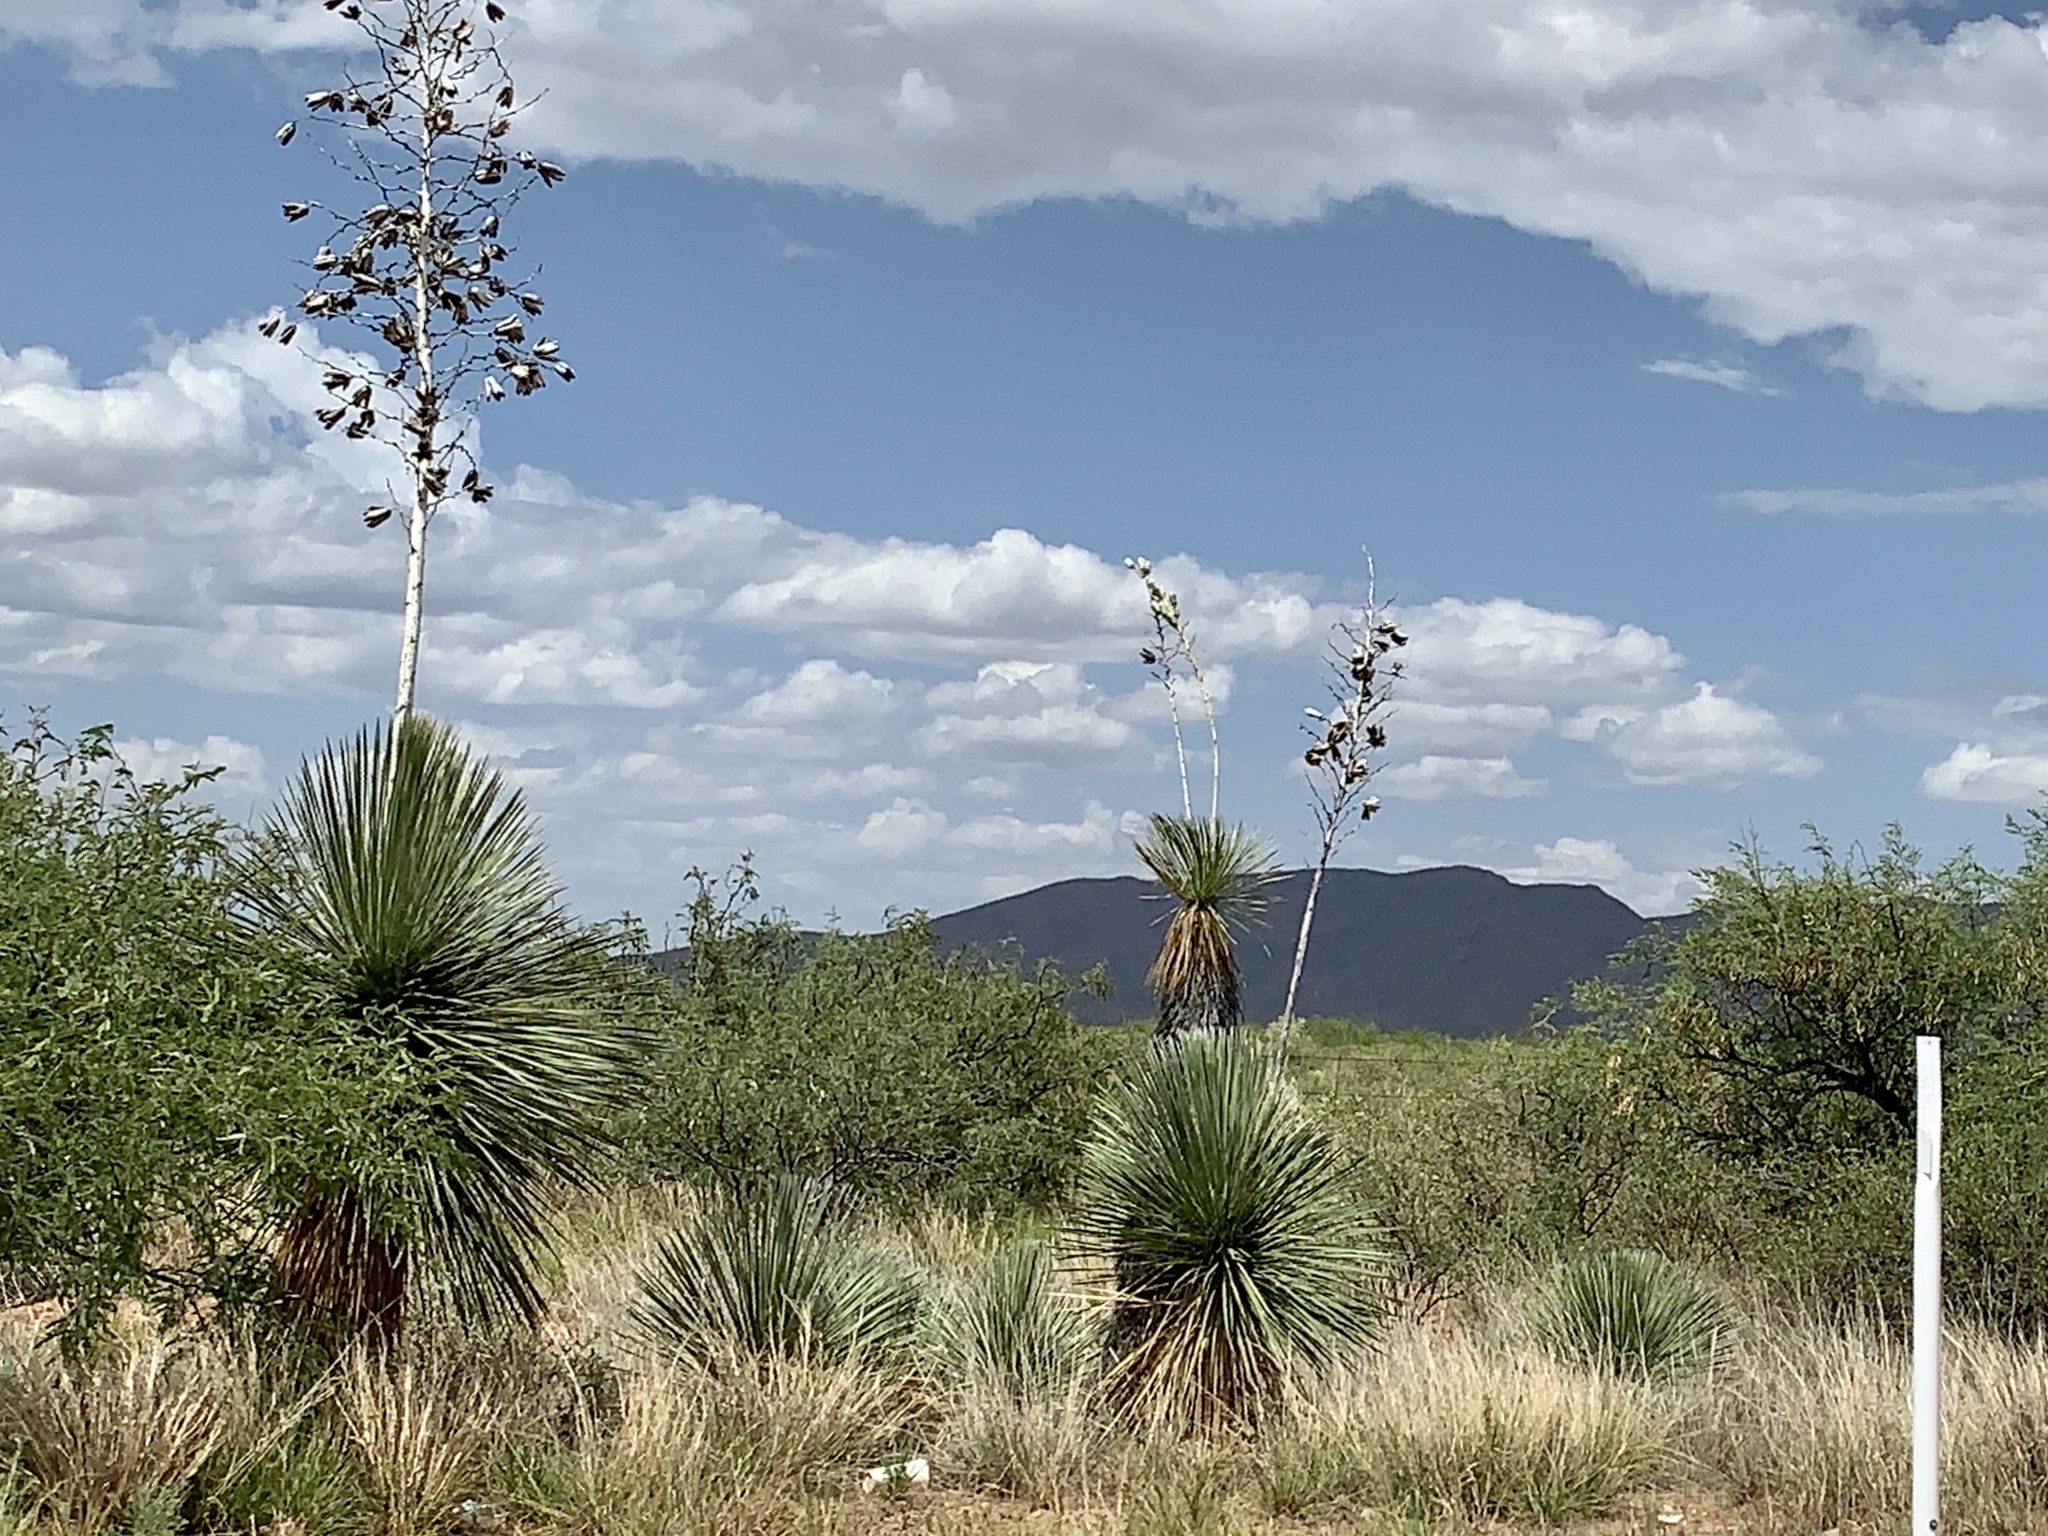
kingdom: Plantae
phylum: Tracheophyta
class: Liliopsida
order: Asparagales
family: Asparagaceae
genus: Yucca
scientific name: Yucca elata
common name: Palmella
